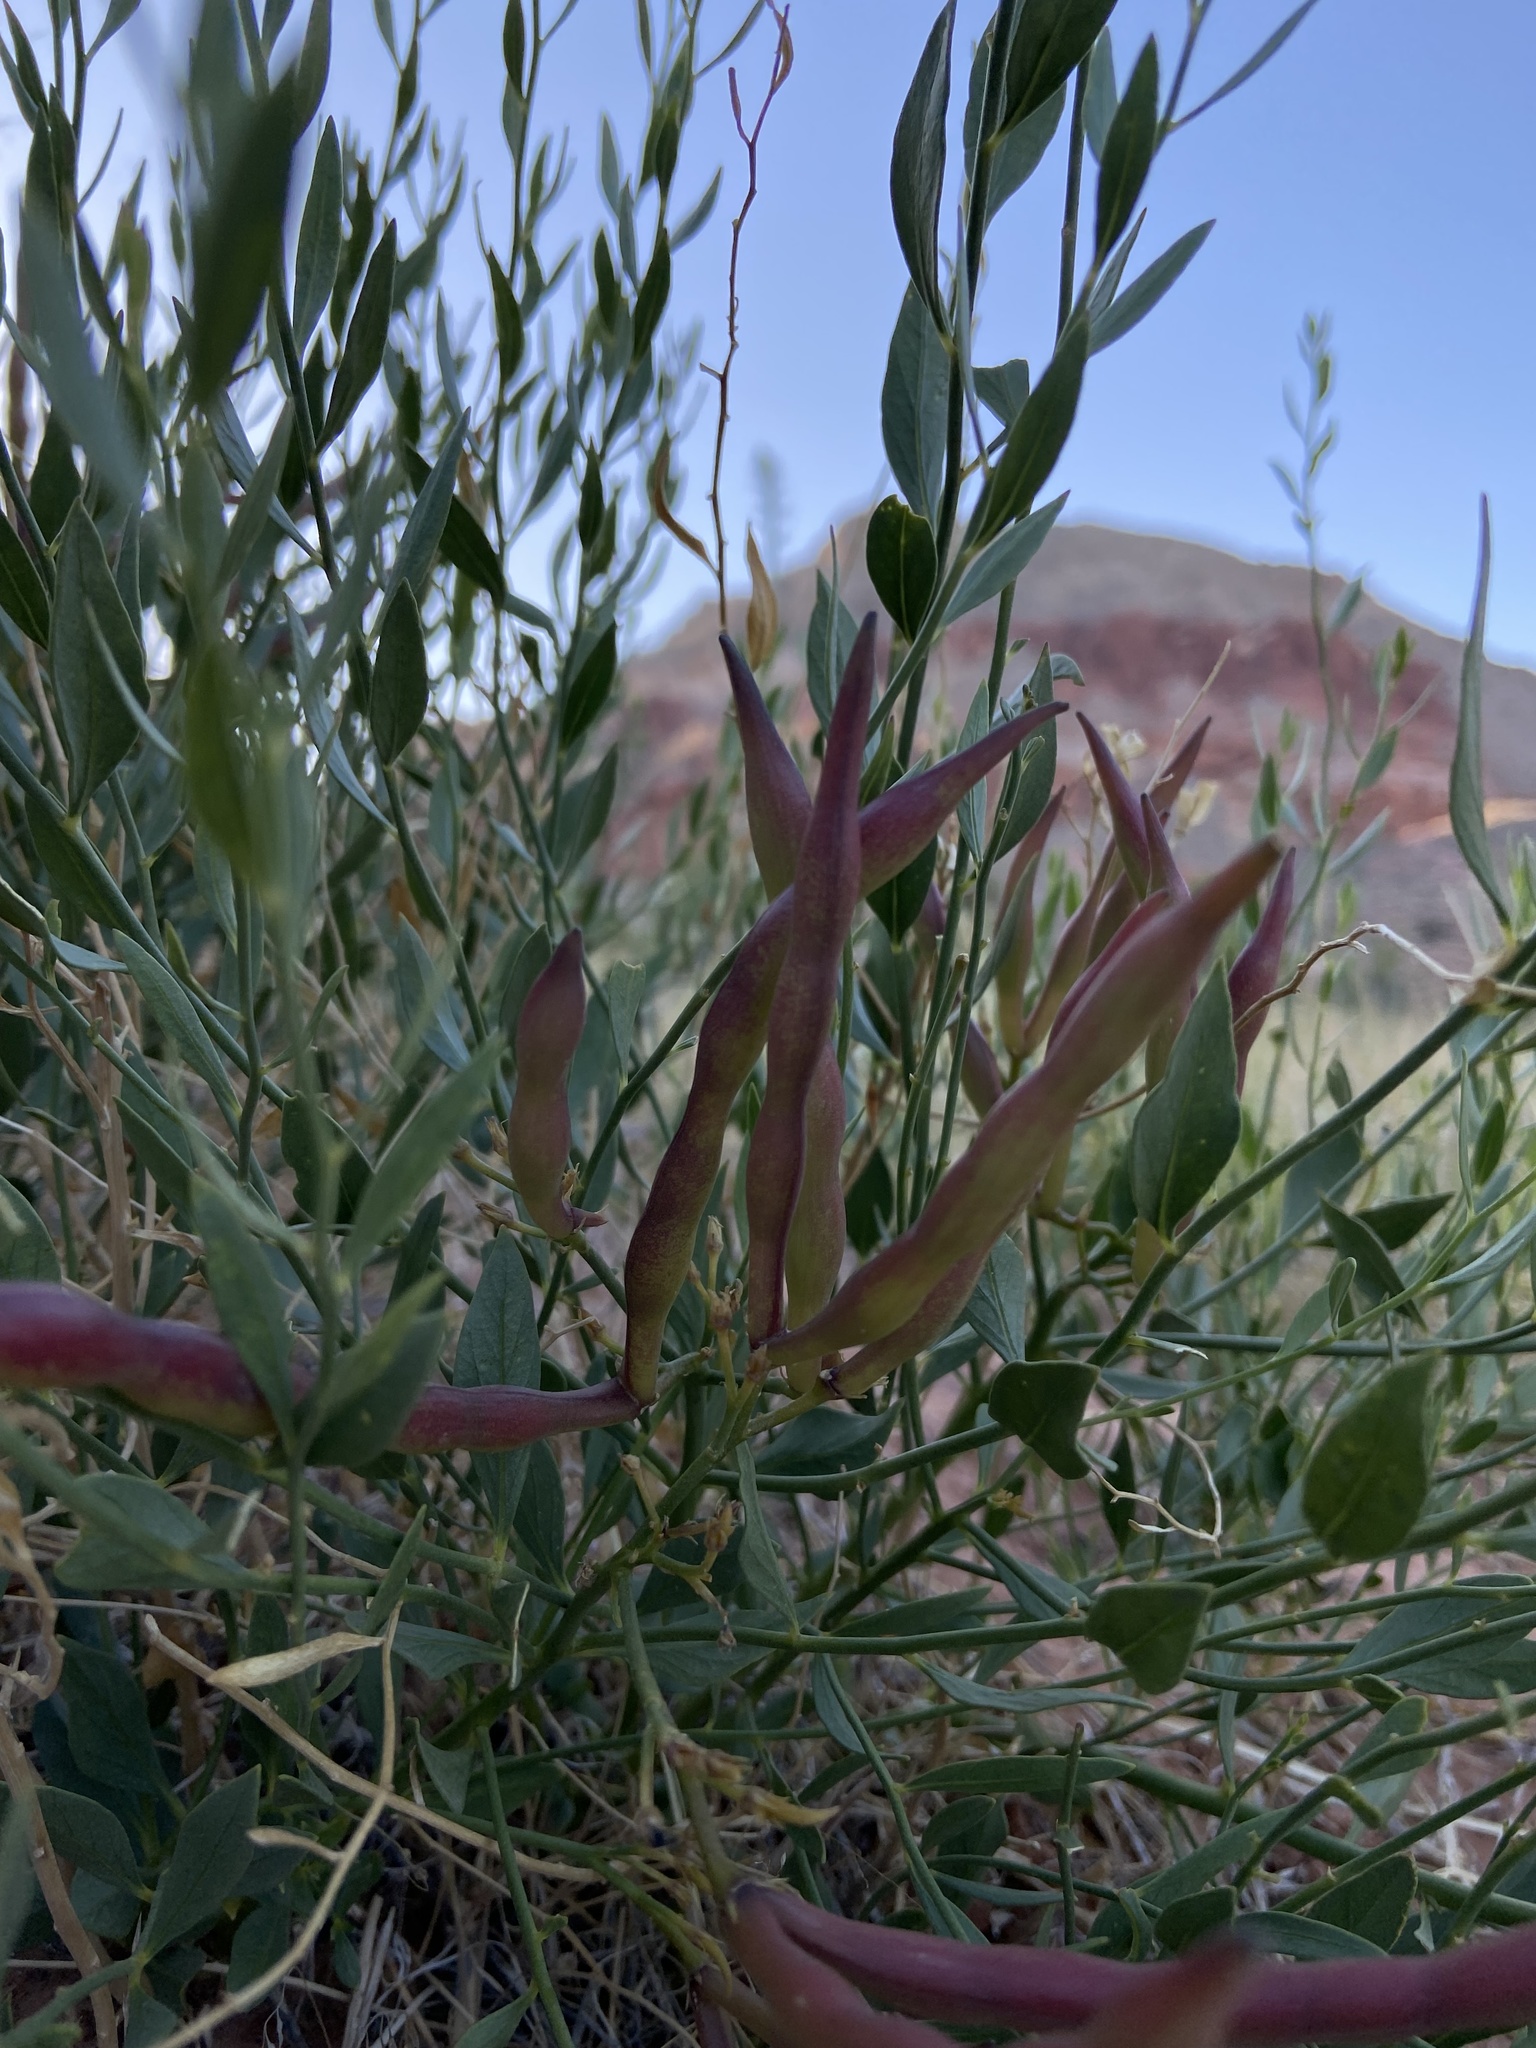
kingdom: Plantae
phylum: Tracheophyta
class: Magnoliopsida
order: Gentianales
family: Apocynaceae
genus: Amsonia
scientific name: Amsonia tomentosa
